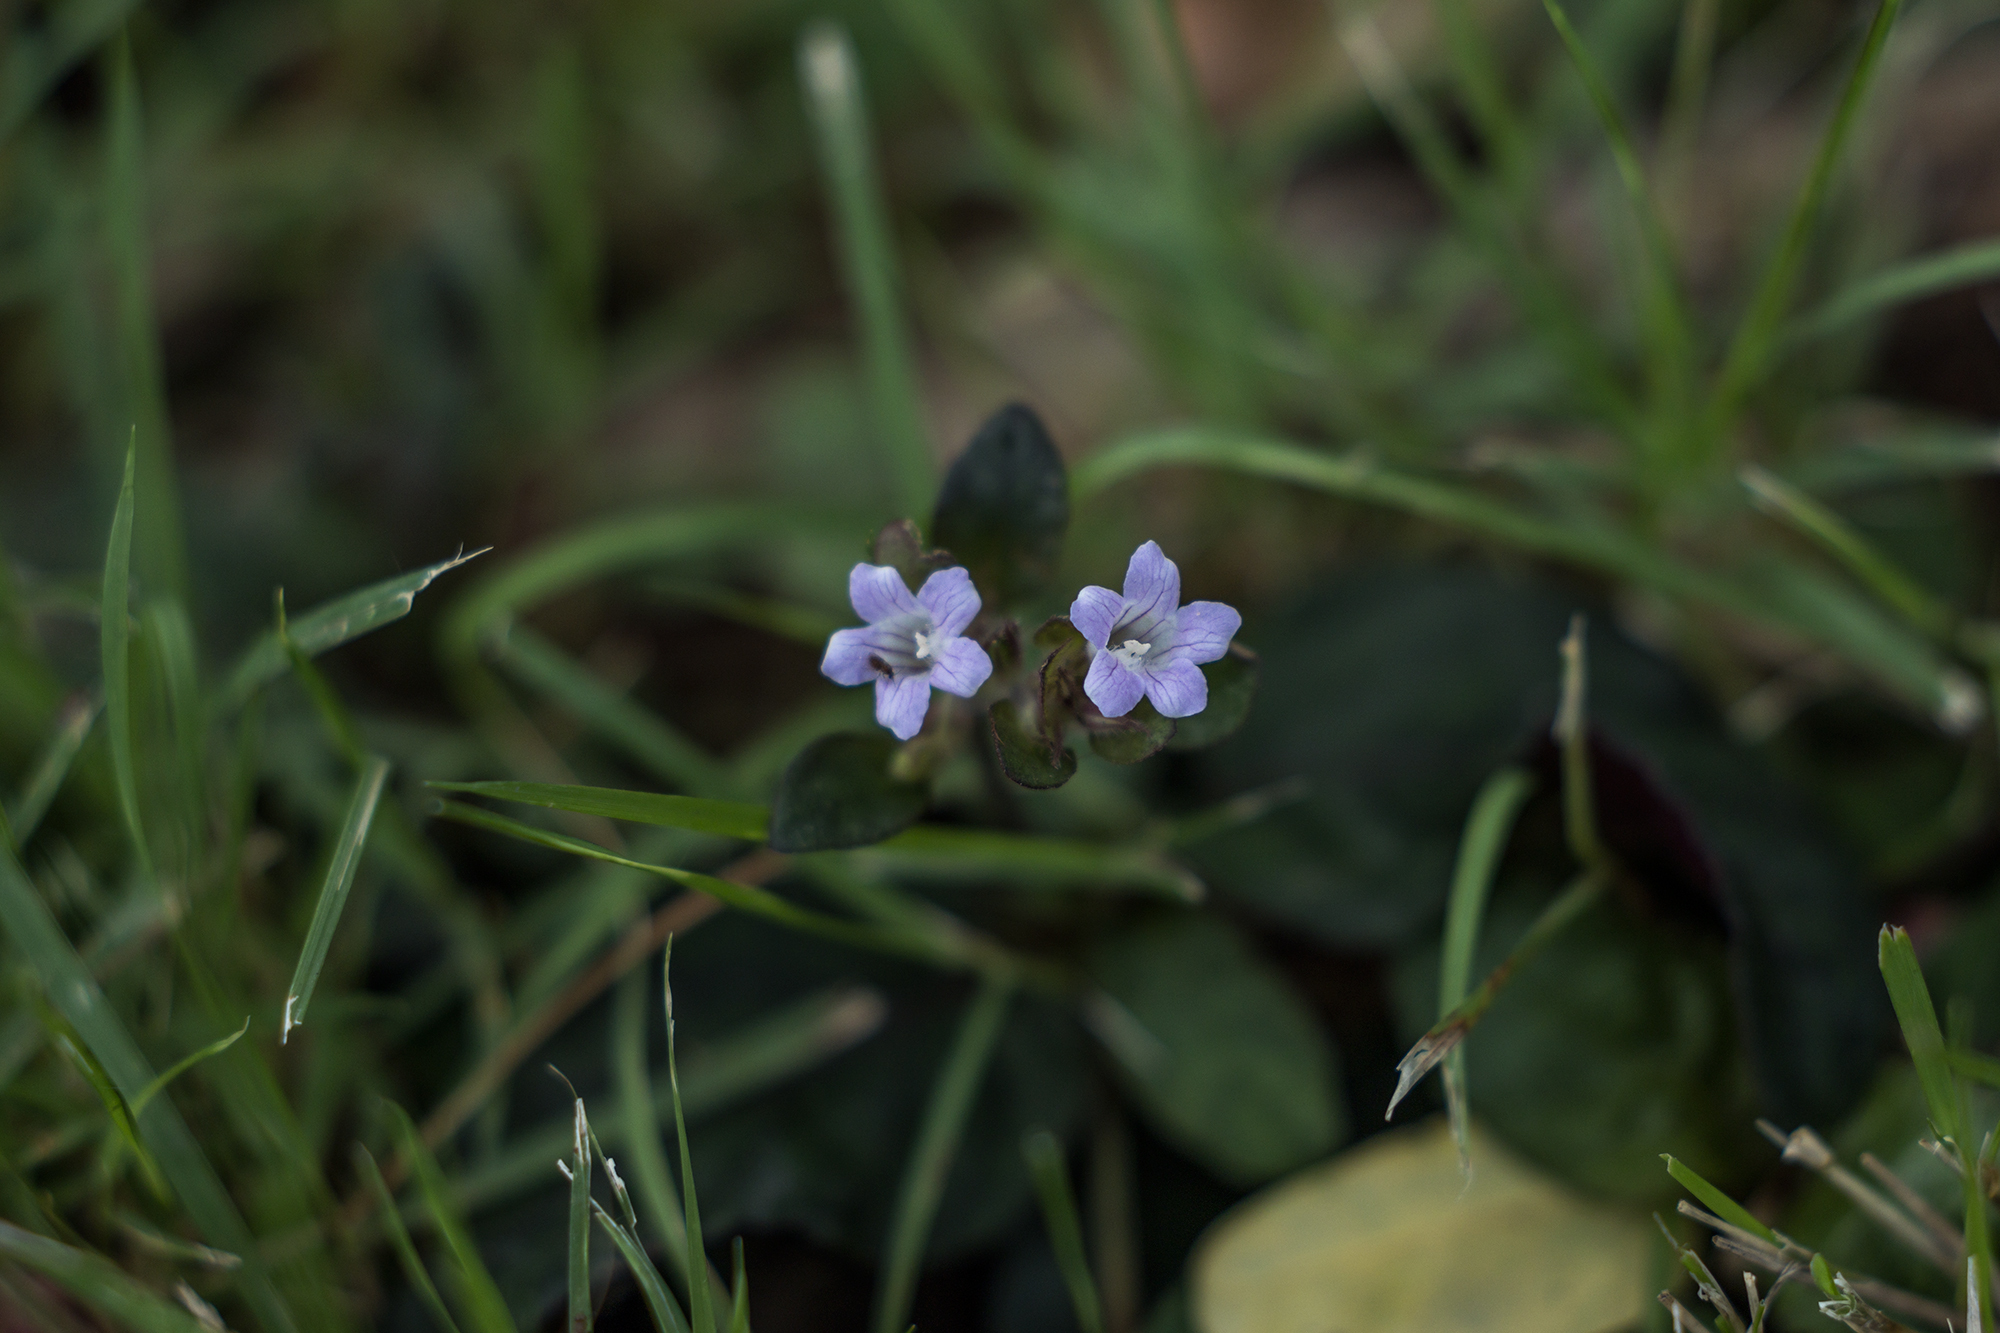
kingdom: Plantae
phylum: Tracheophyta
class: Magnoliopsida
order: Lamiales
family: Acanthaceae
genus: Strobilanthes
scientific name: Strobilanthes reptans
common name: Acanthaceae
